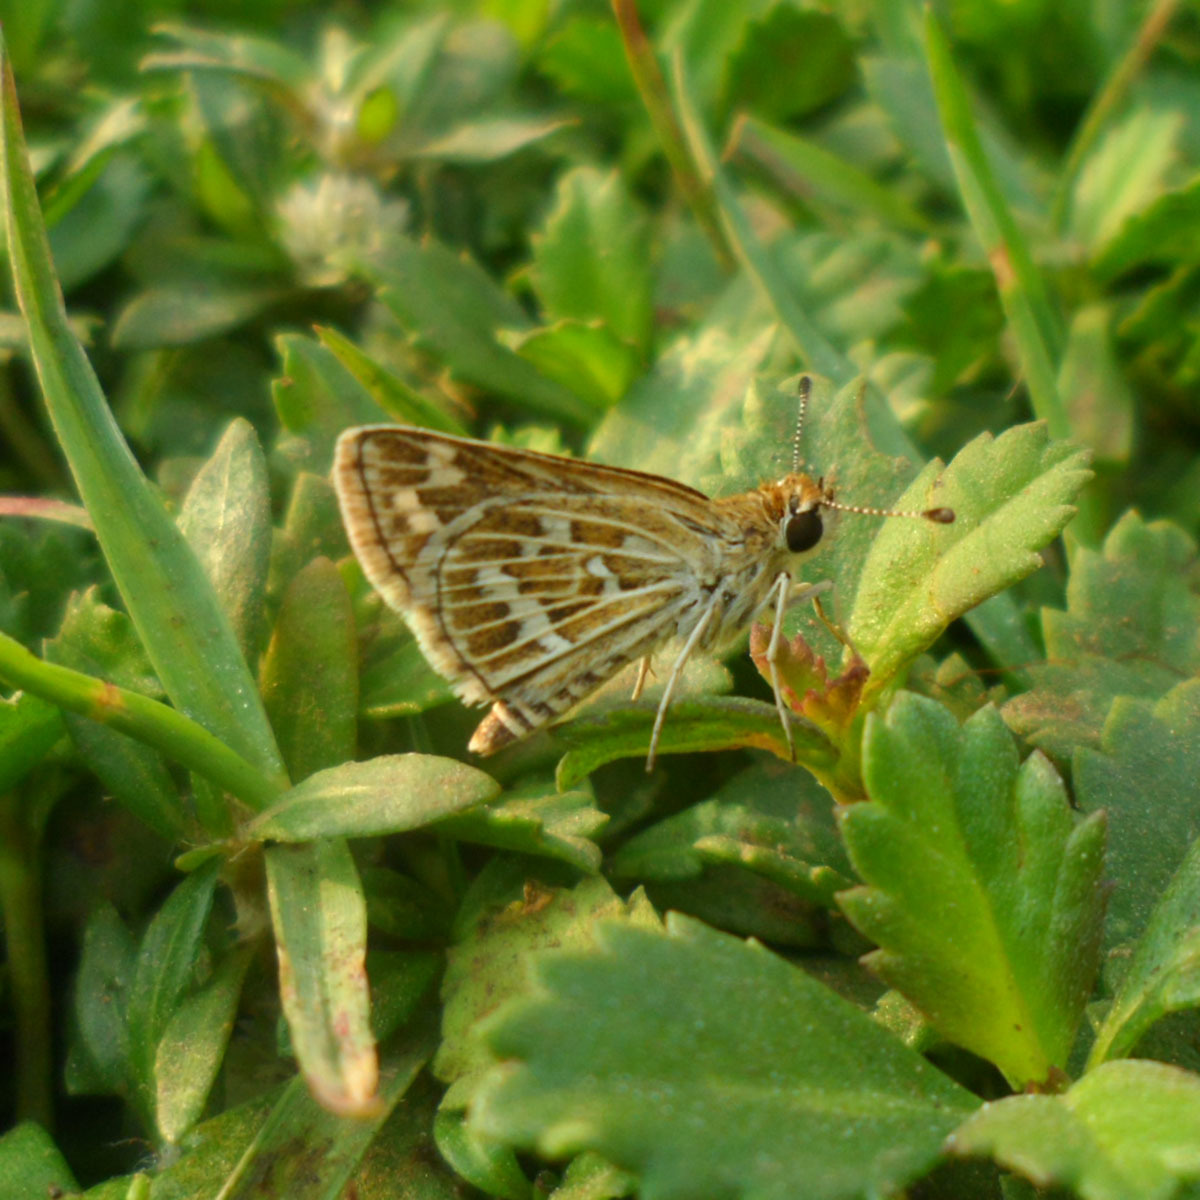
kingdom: Animalia
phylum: Arthropoda
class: Insecta
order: Lepidoptera
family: Hesperiidae
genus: Taractrocera
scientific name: Taractrocera maevius
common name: Common grass-dart
